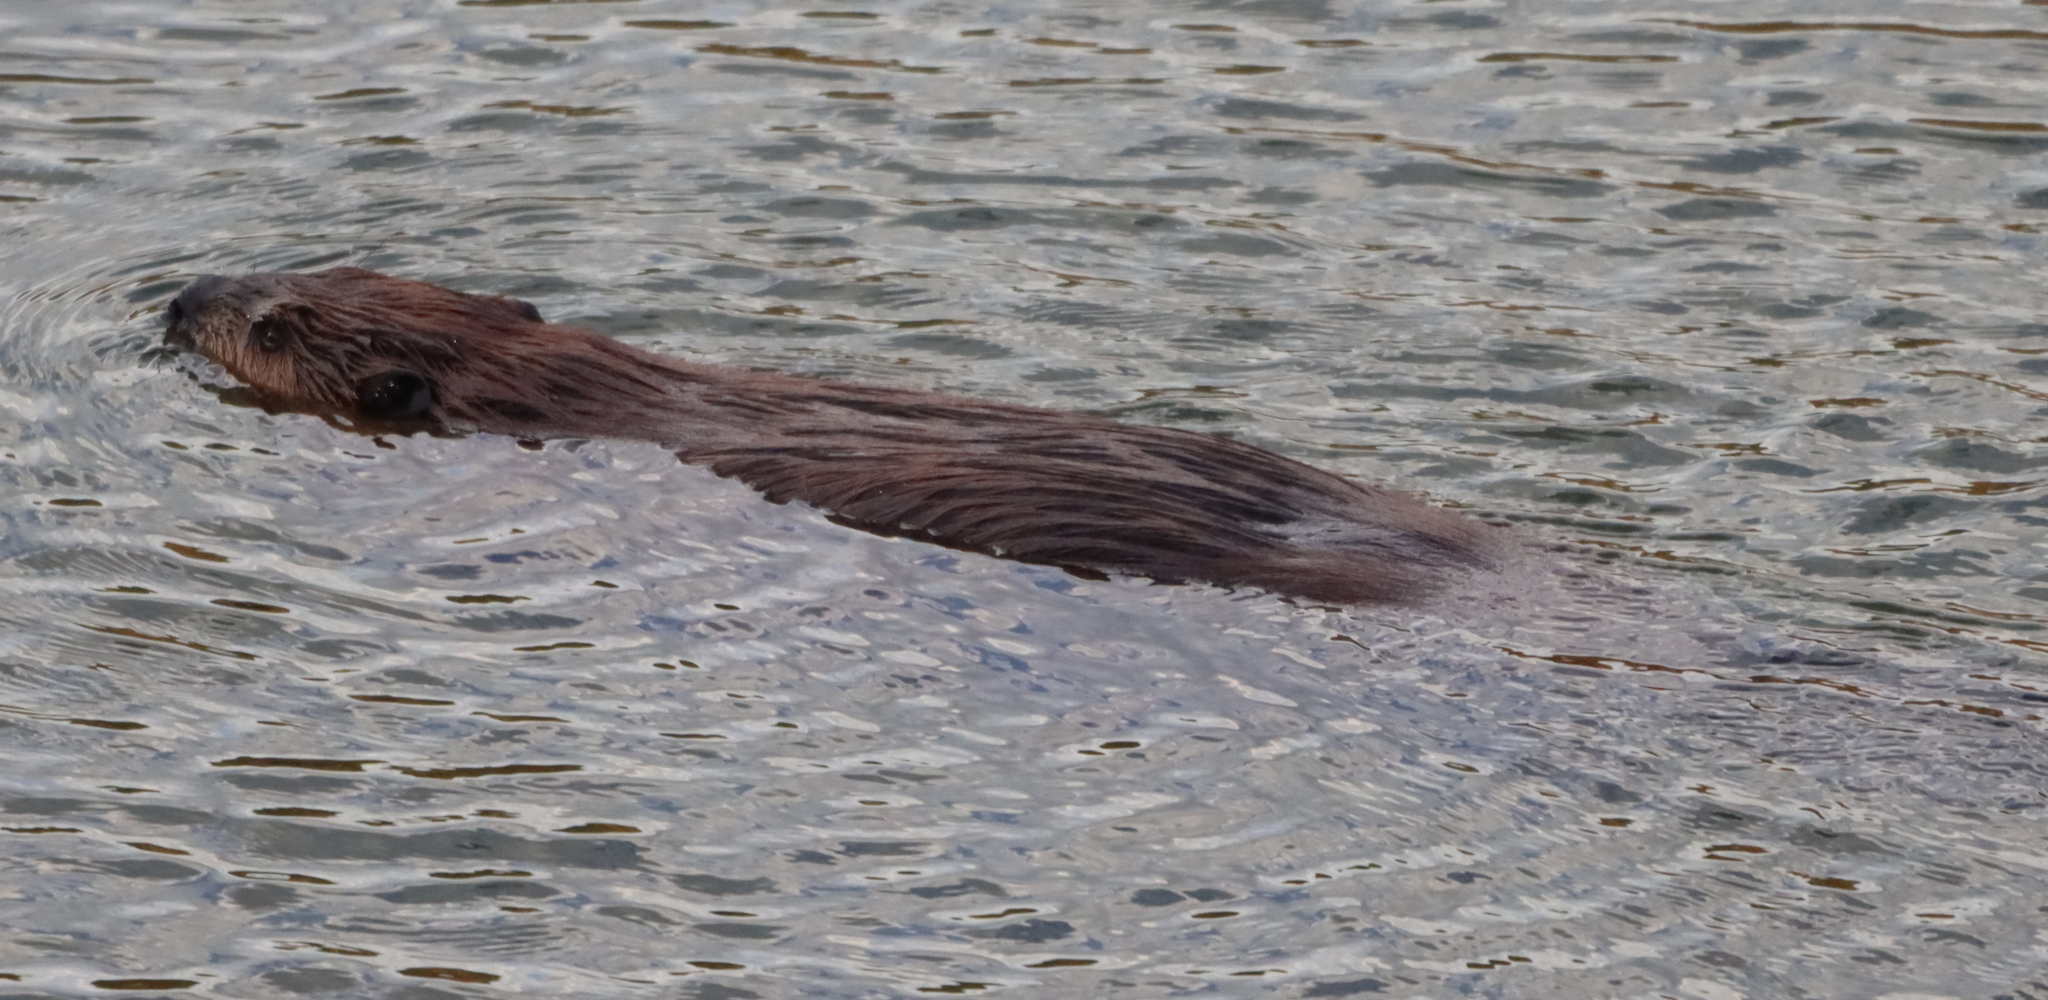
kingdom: Animalia
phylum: Chordata
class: Mammalia
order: Rodentia
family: Castoridae
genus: Castor
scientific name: Castor canadensis
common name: American beaver
